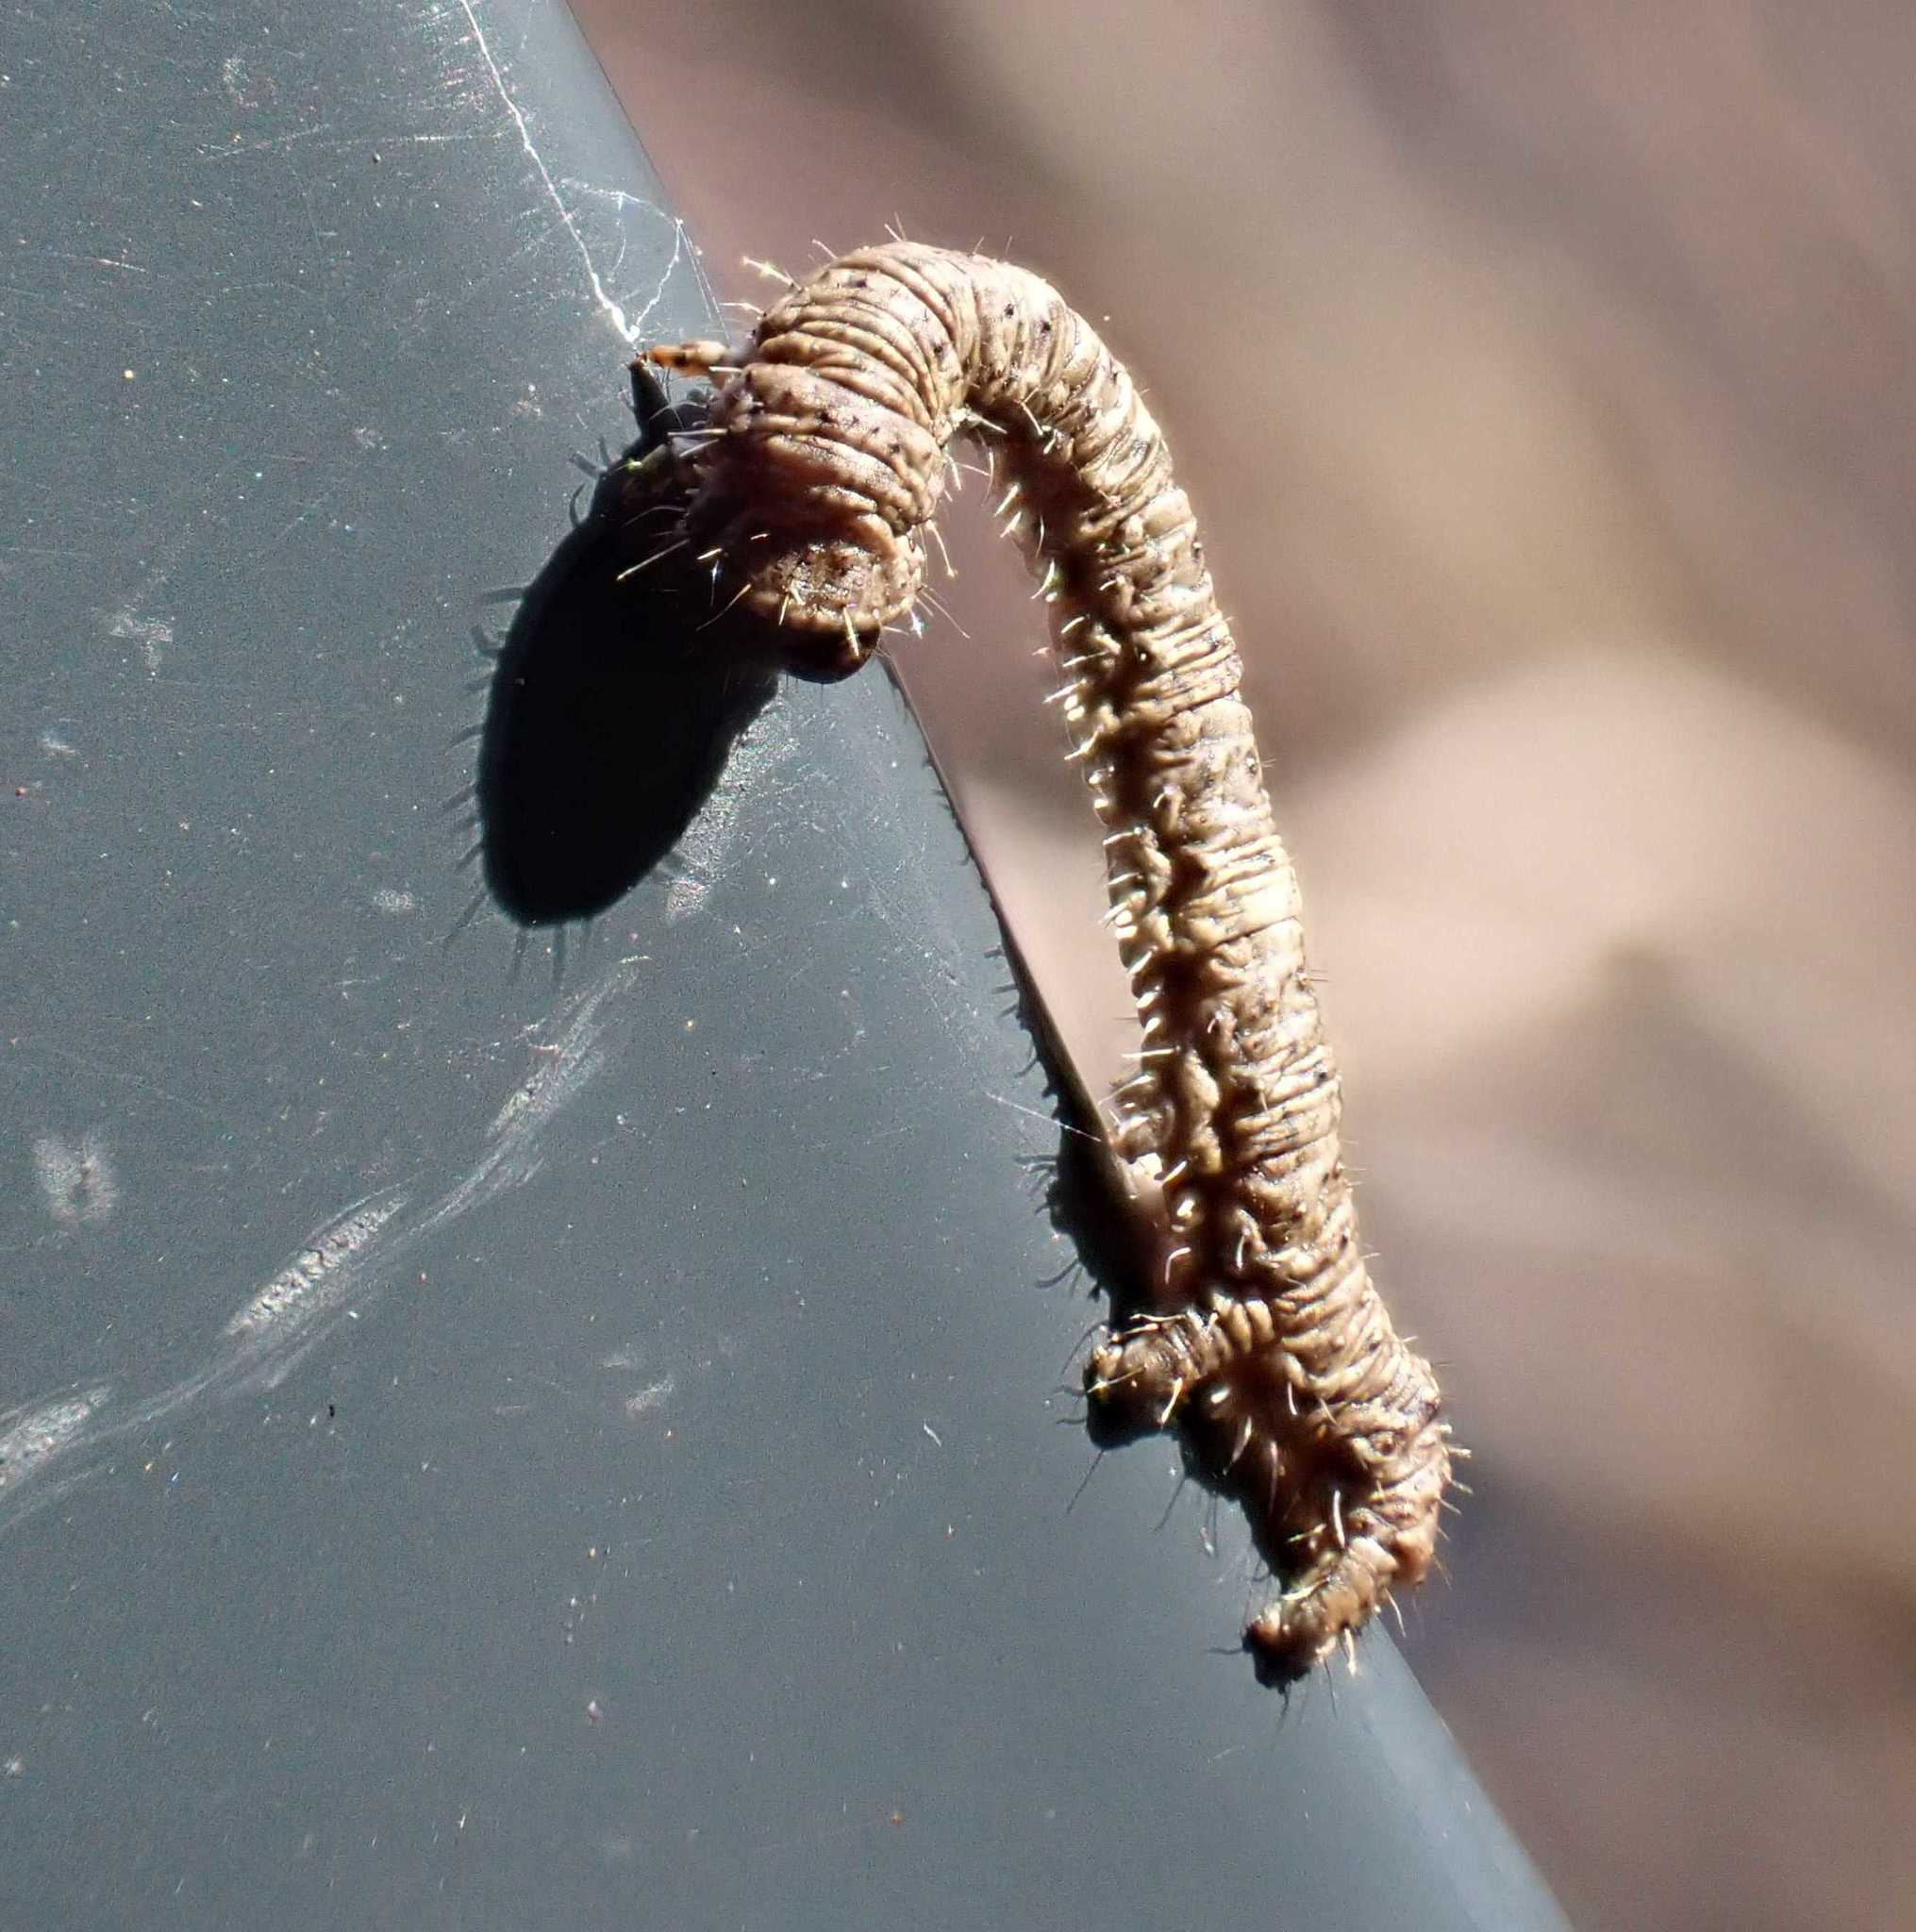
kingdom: Animalia
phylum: Arthropoda
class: Insecta
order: Lepidoptera
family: Geometridae
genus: Campaea
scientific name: Campaea margaritaria
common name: Light emerald
